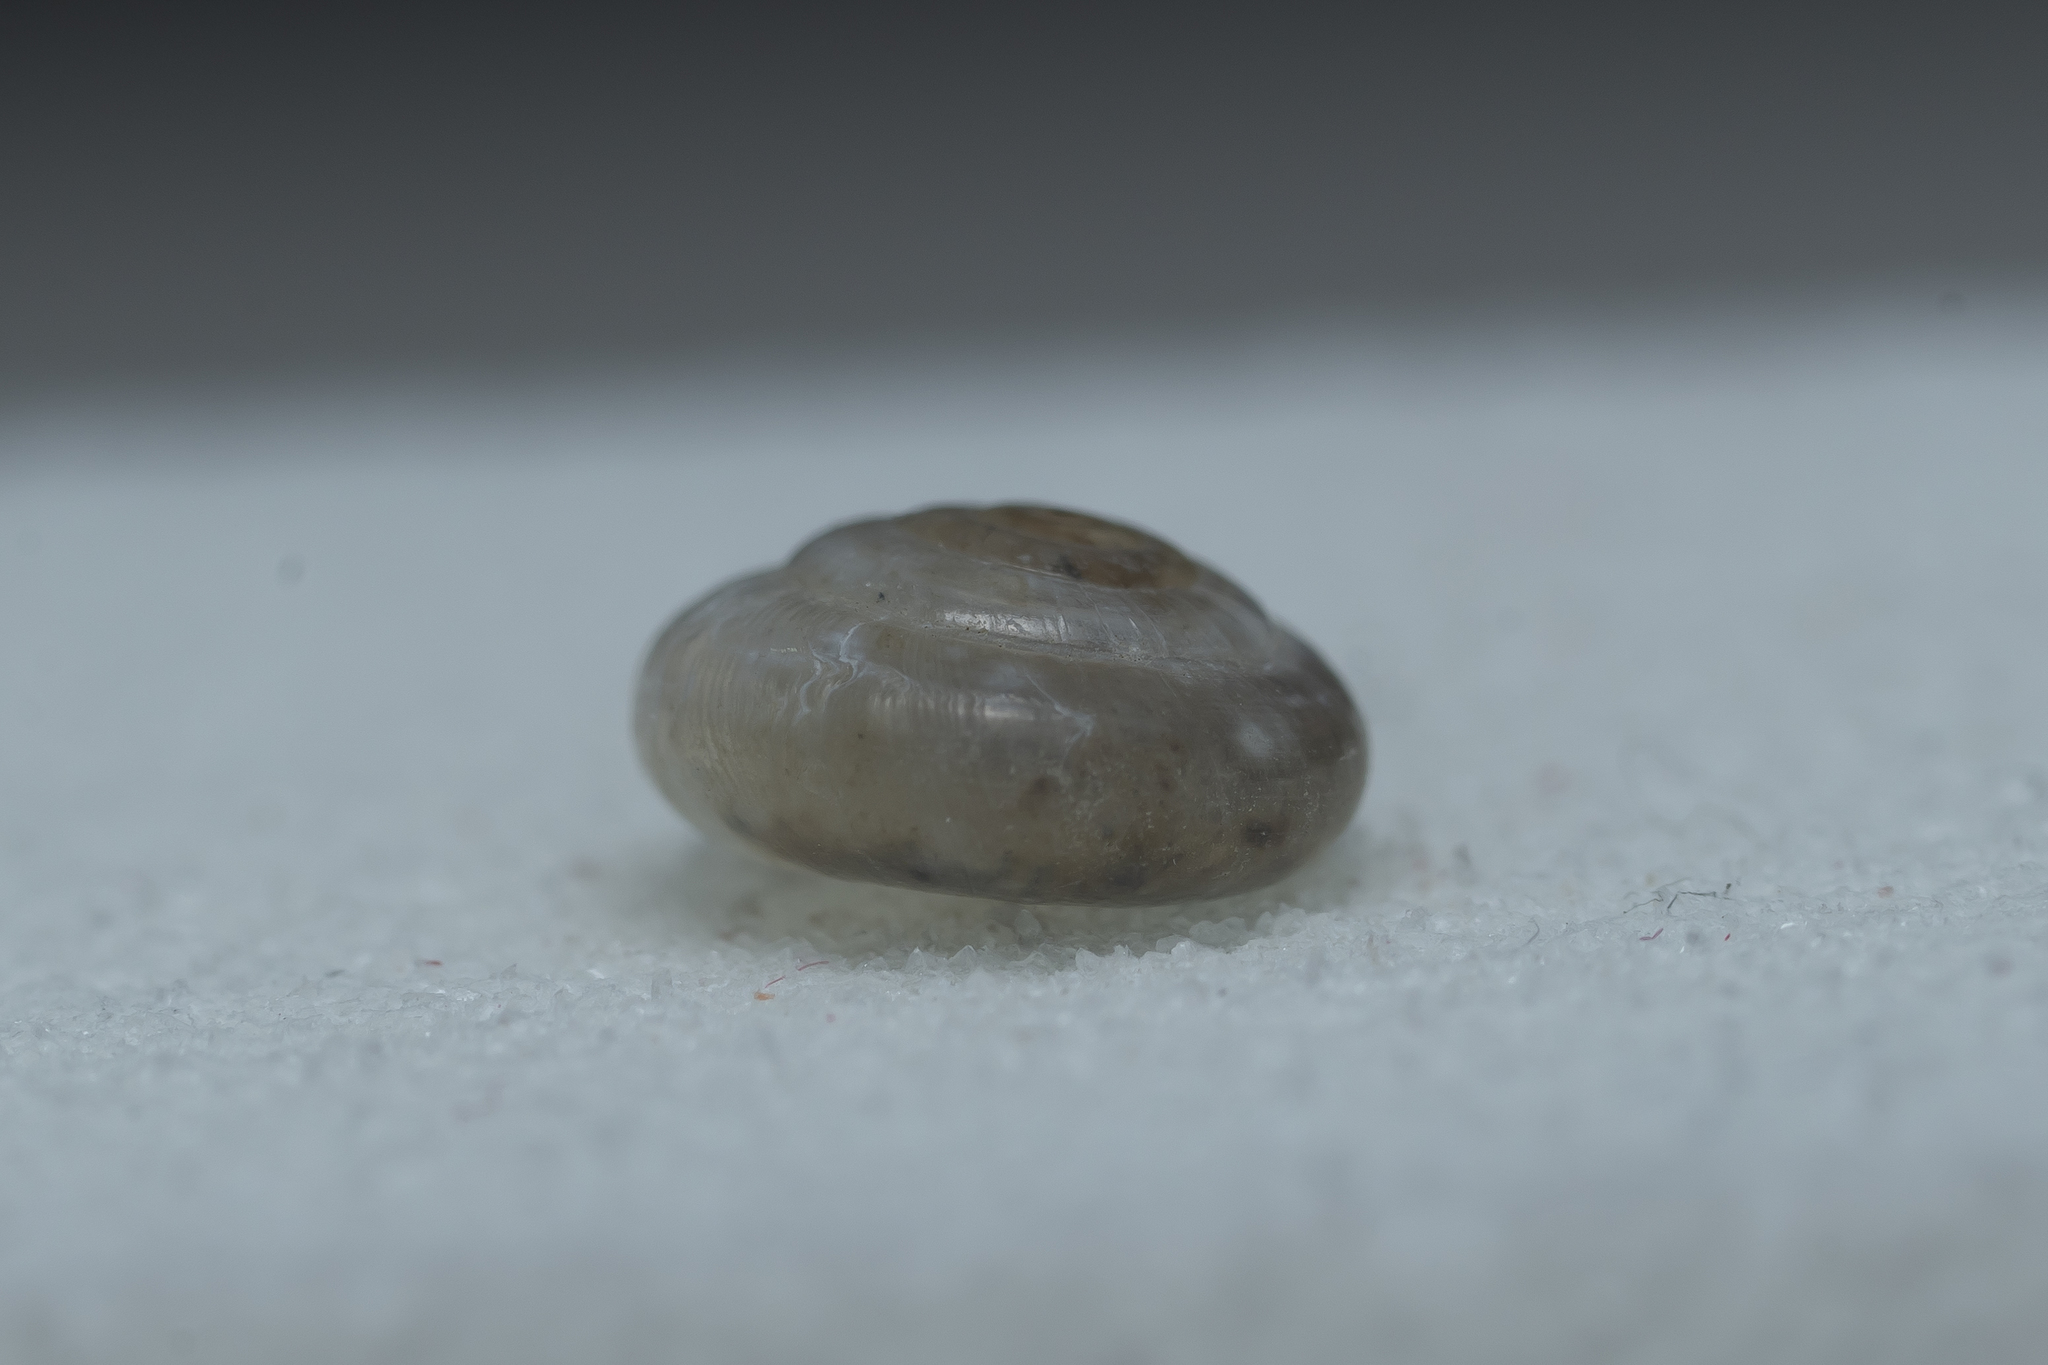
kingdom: Animalia
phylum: Mollusca
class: Gastropoda
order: Stylommatophora
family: Oxychilidae
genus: Mediterranea
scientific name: Mediterranea hydatina
